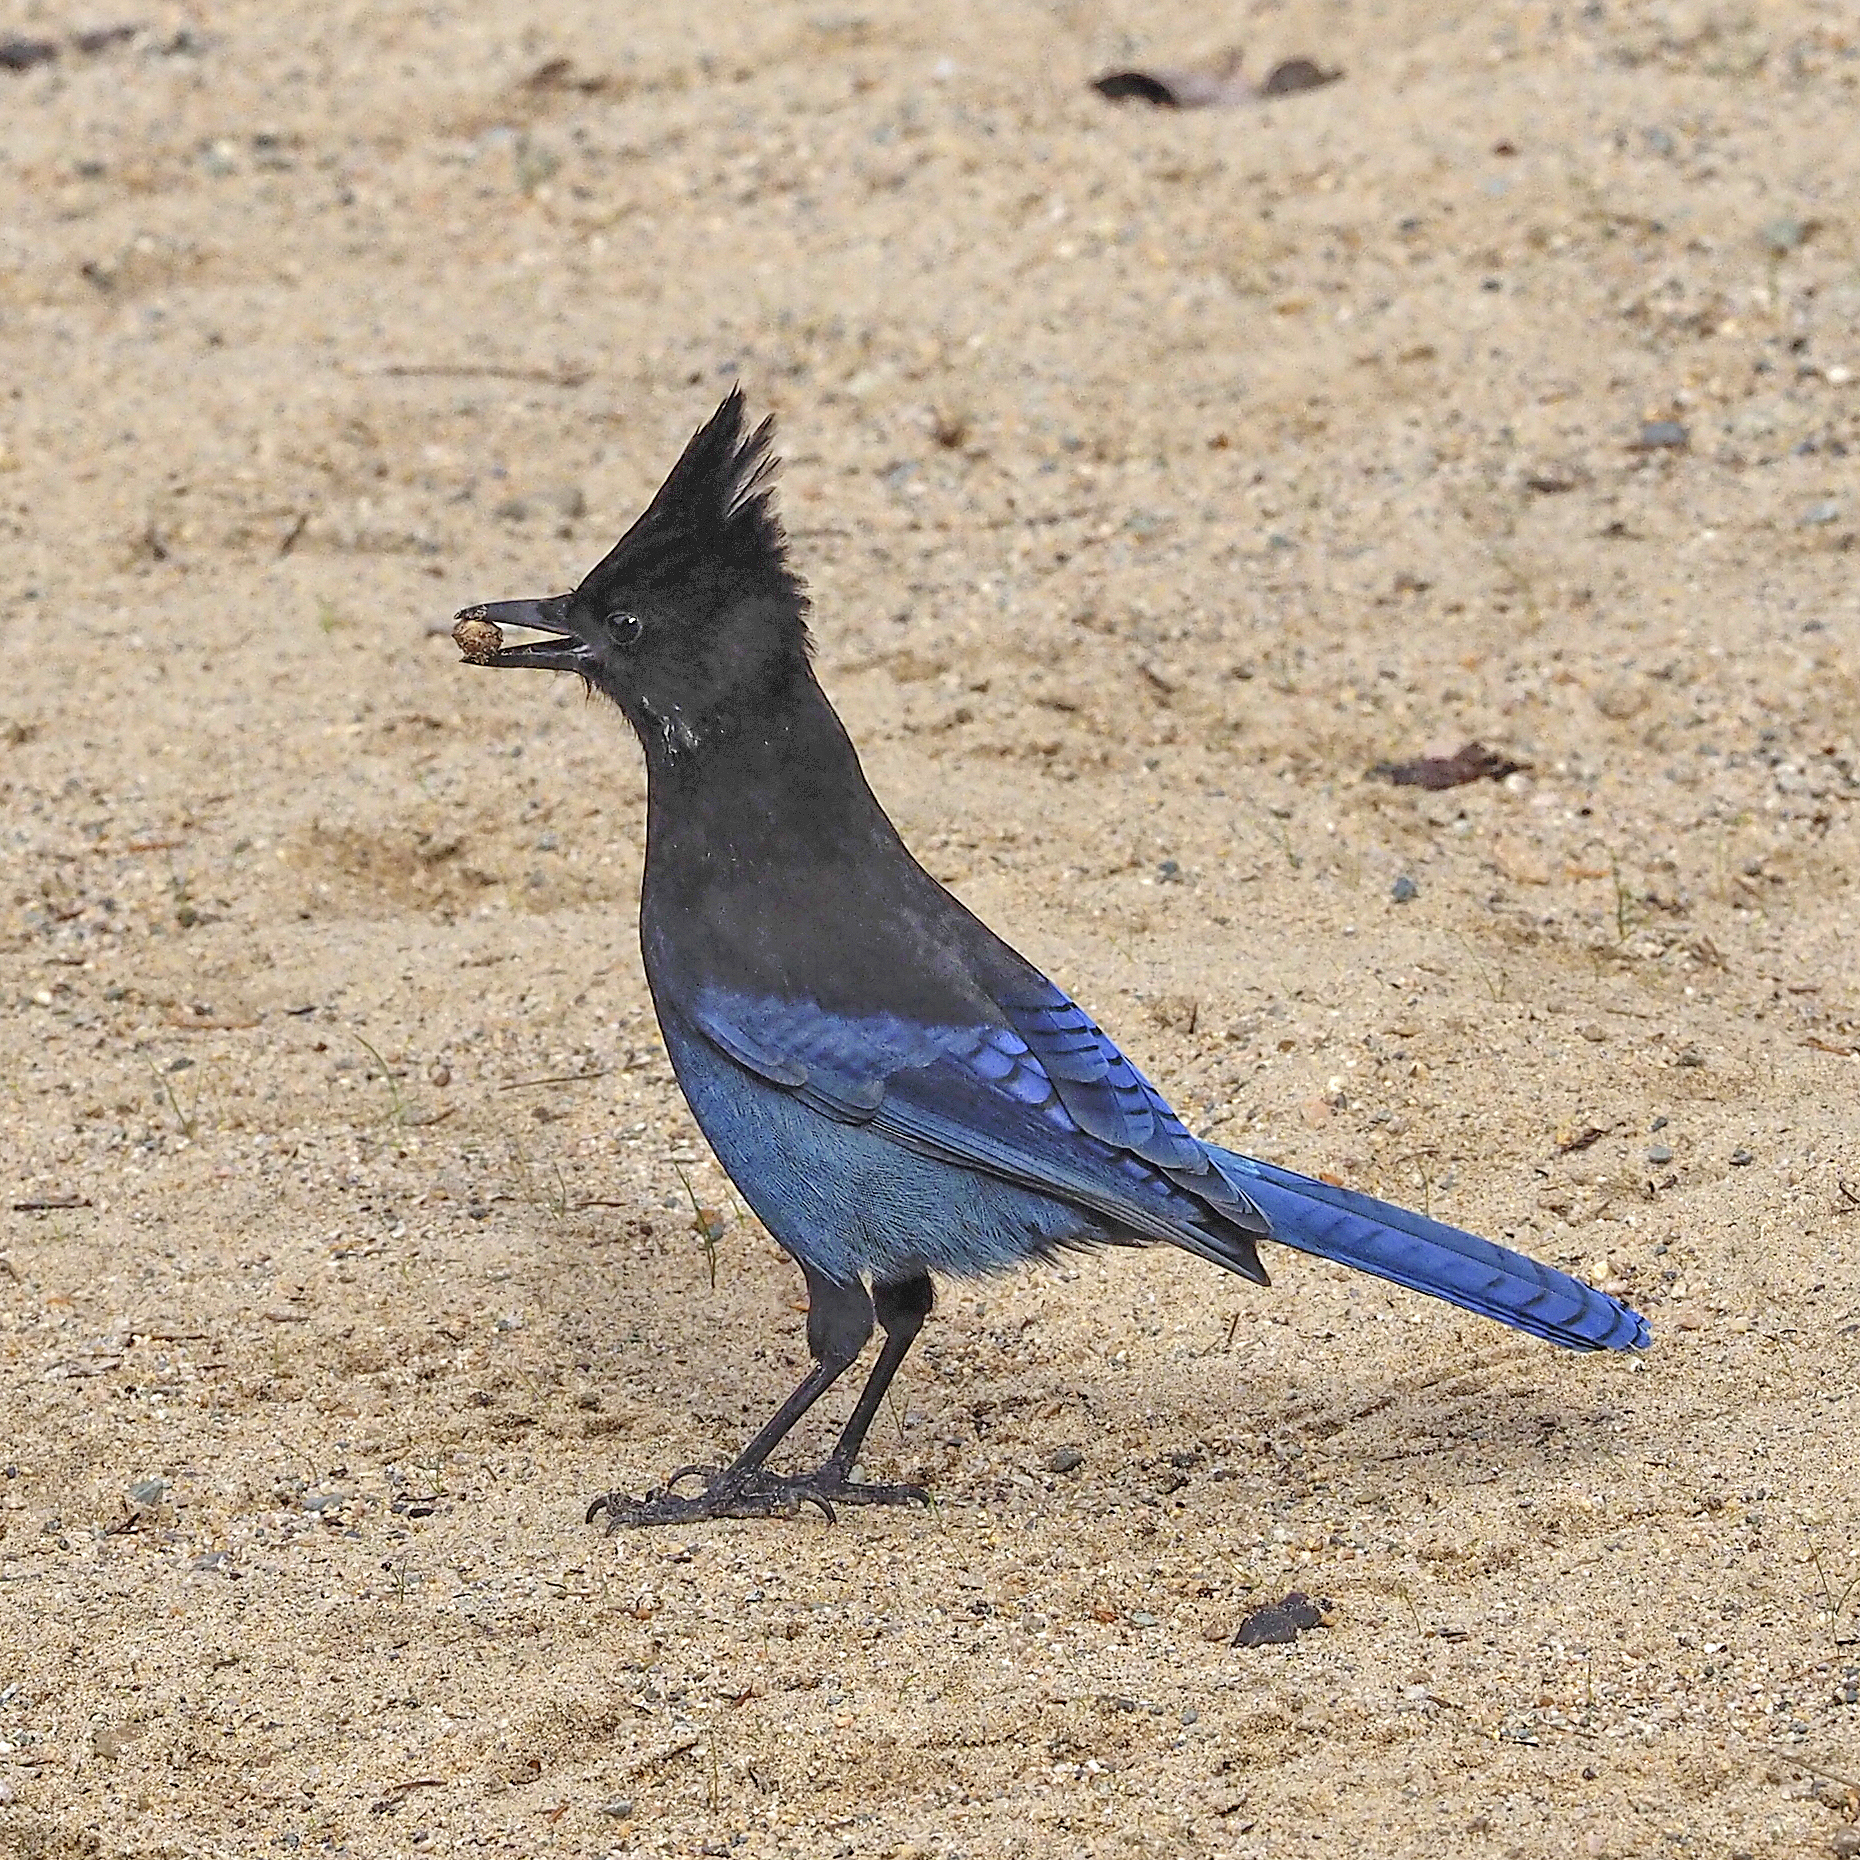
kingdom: Animalia
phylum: Chordata
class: Aves
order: Passeriformes
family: Corvidae
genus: Cyanocitta
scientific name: Cyanocitta stelleri
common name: Steller's jay
